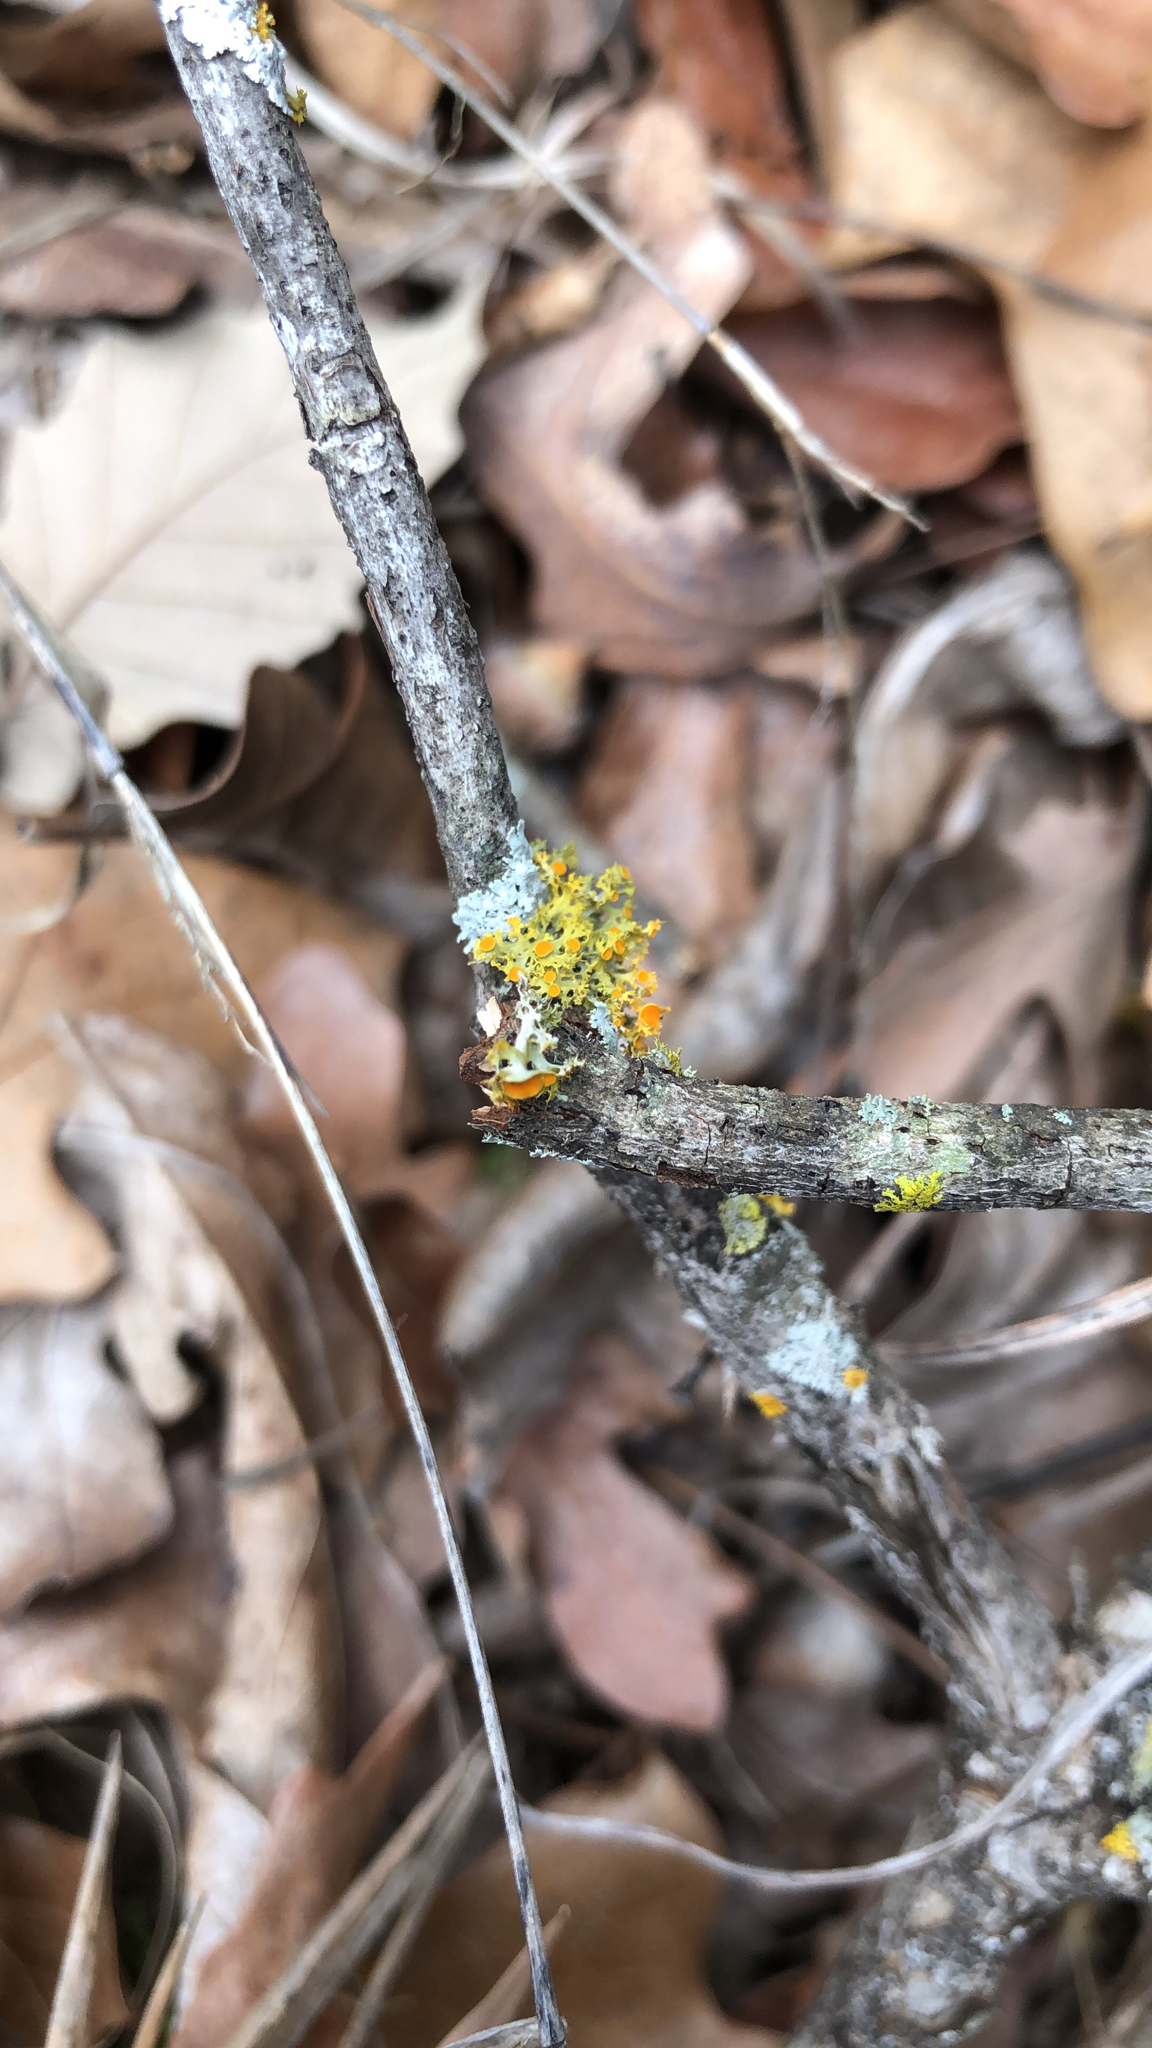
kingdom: Fungi
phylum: Ascomycota
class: Lecanoromycetes
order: Teloschistales
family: Teloschistaceae
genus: Niorma
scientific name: Niorma chrysophthalma
